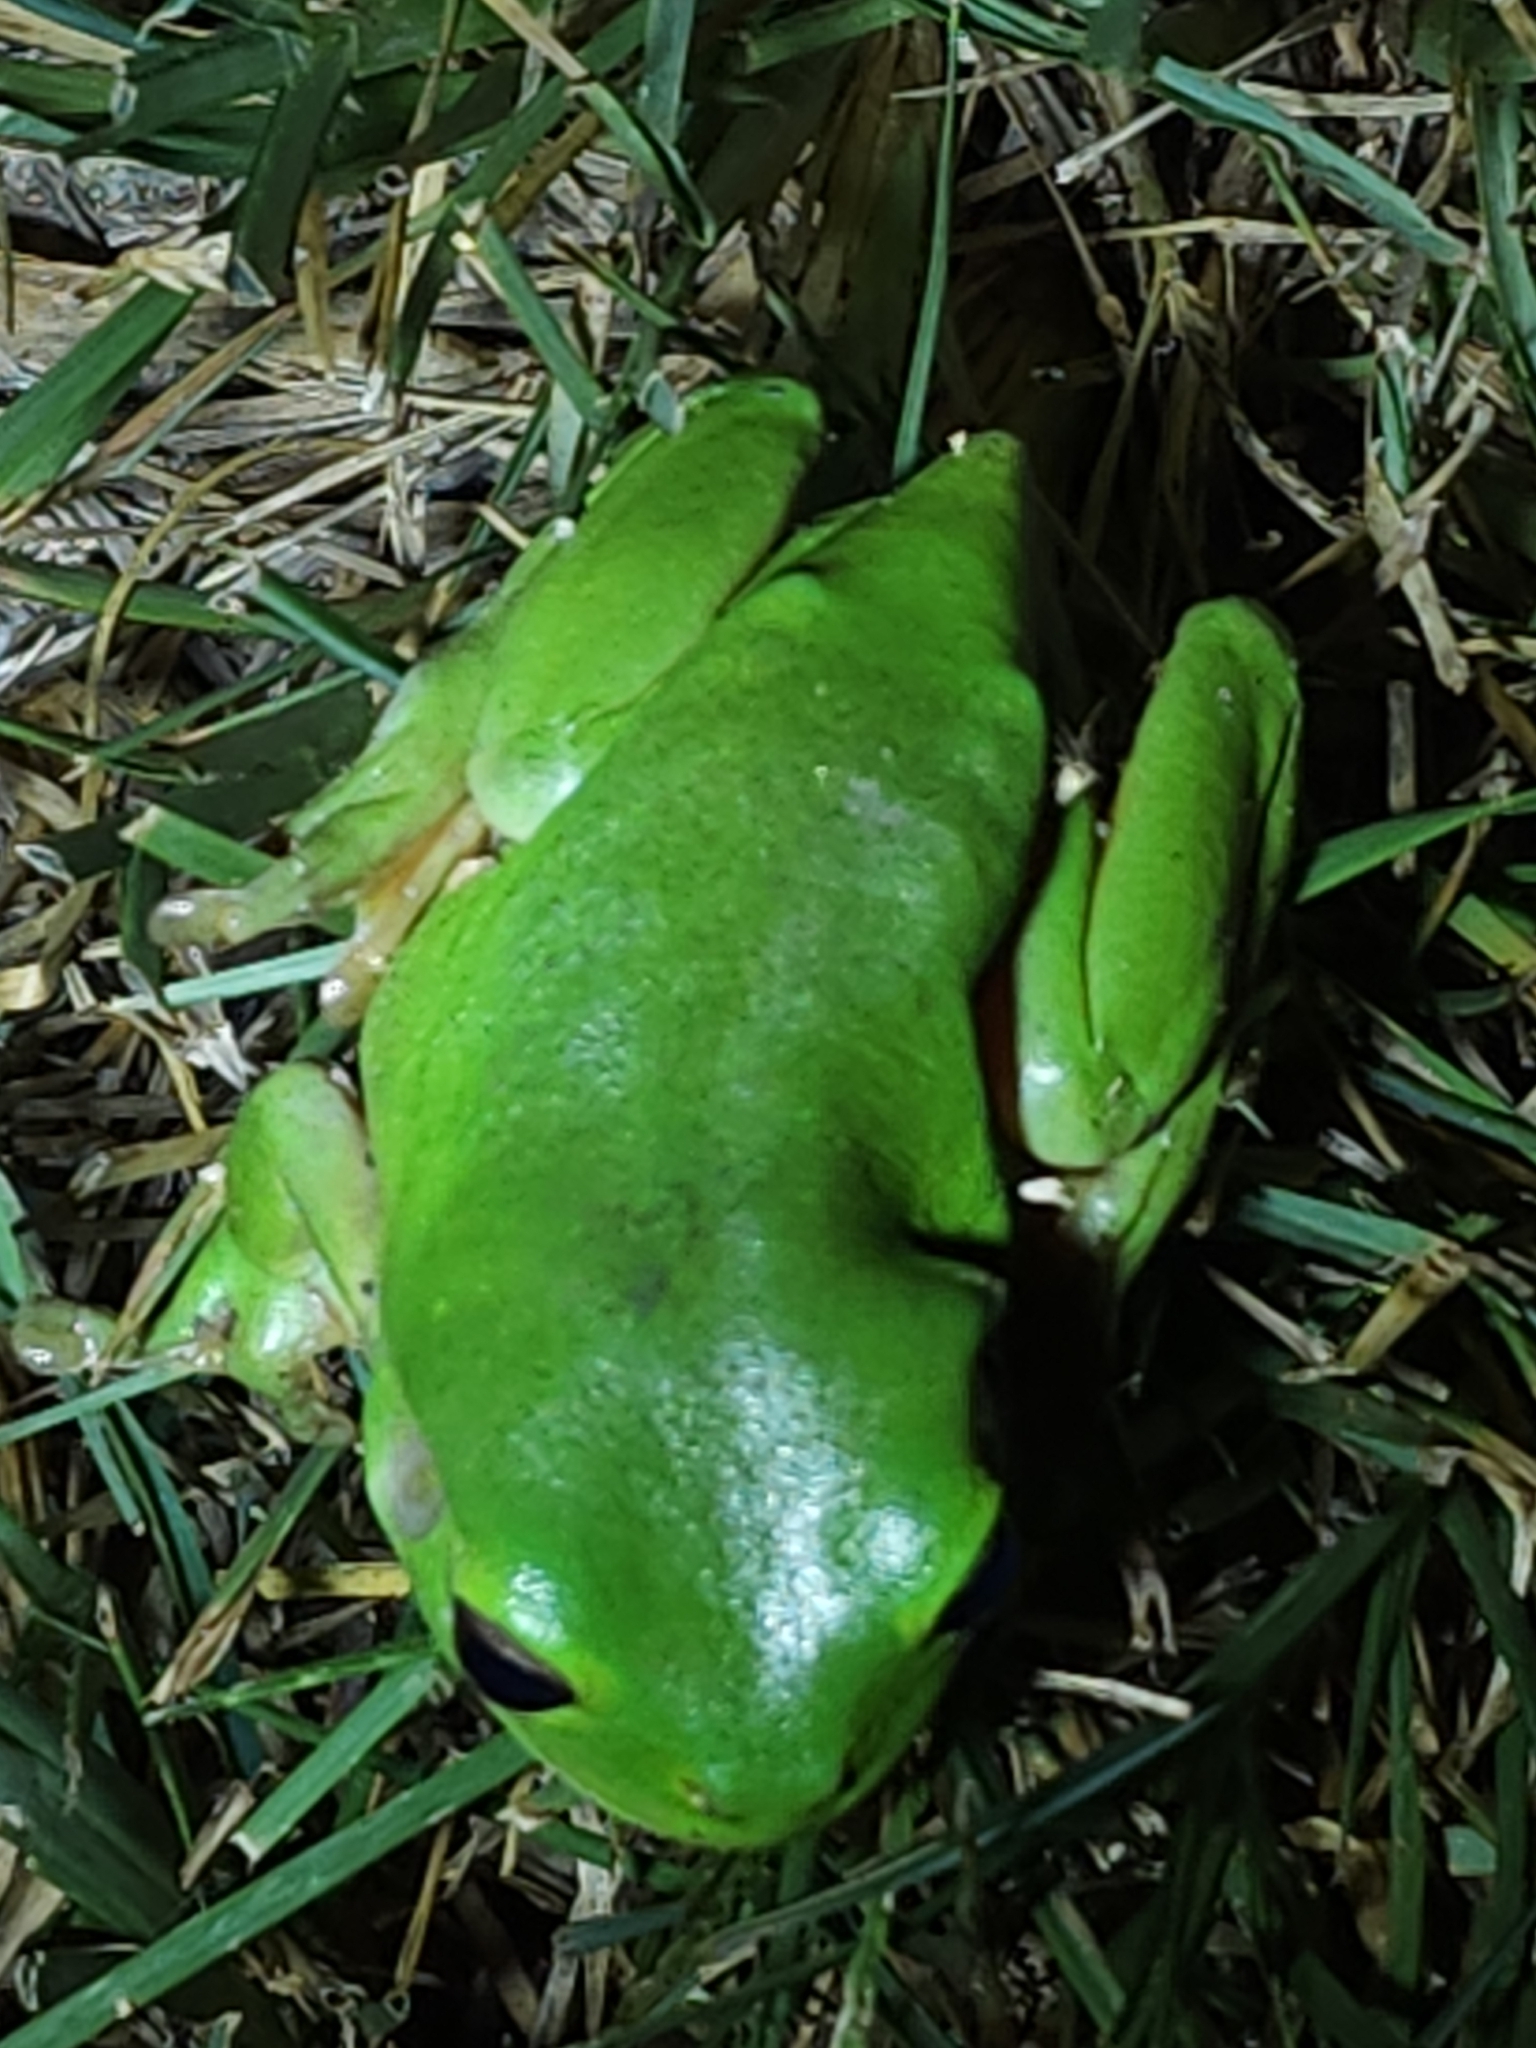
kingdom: Animalia
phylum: Chordata
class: Amphibia
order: Anura
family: Pelodryadidae
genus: Ranoidea
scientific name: Ranoidea caerulea
